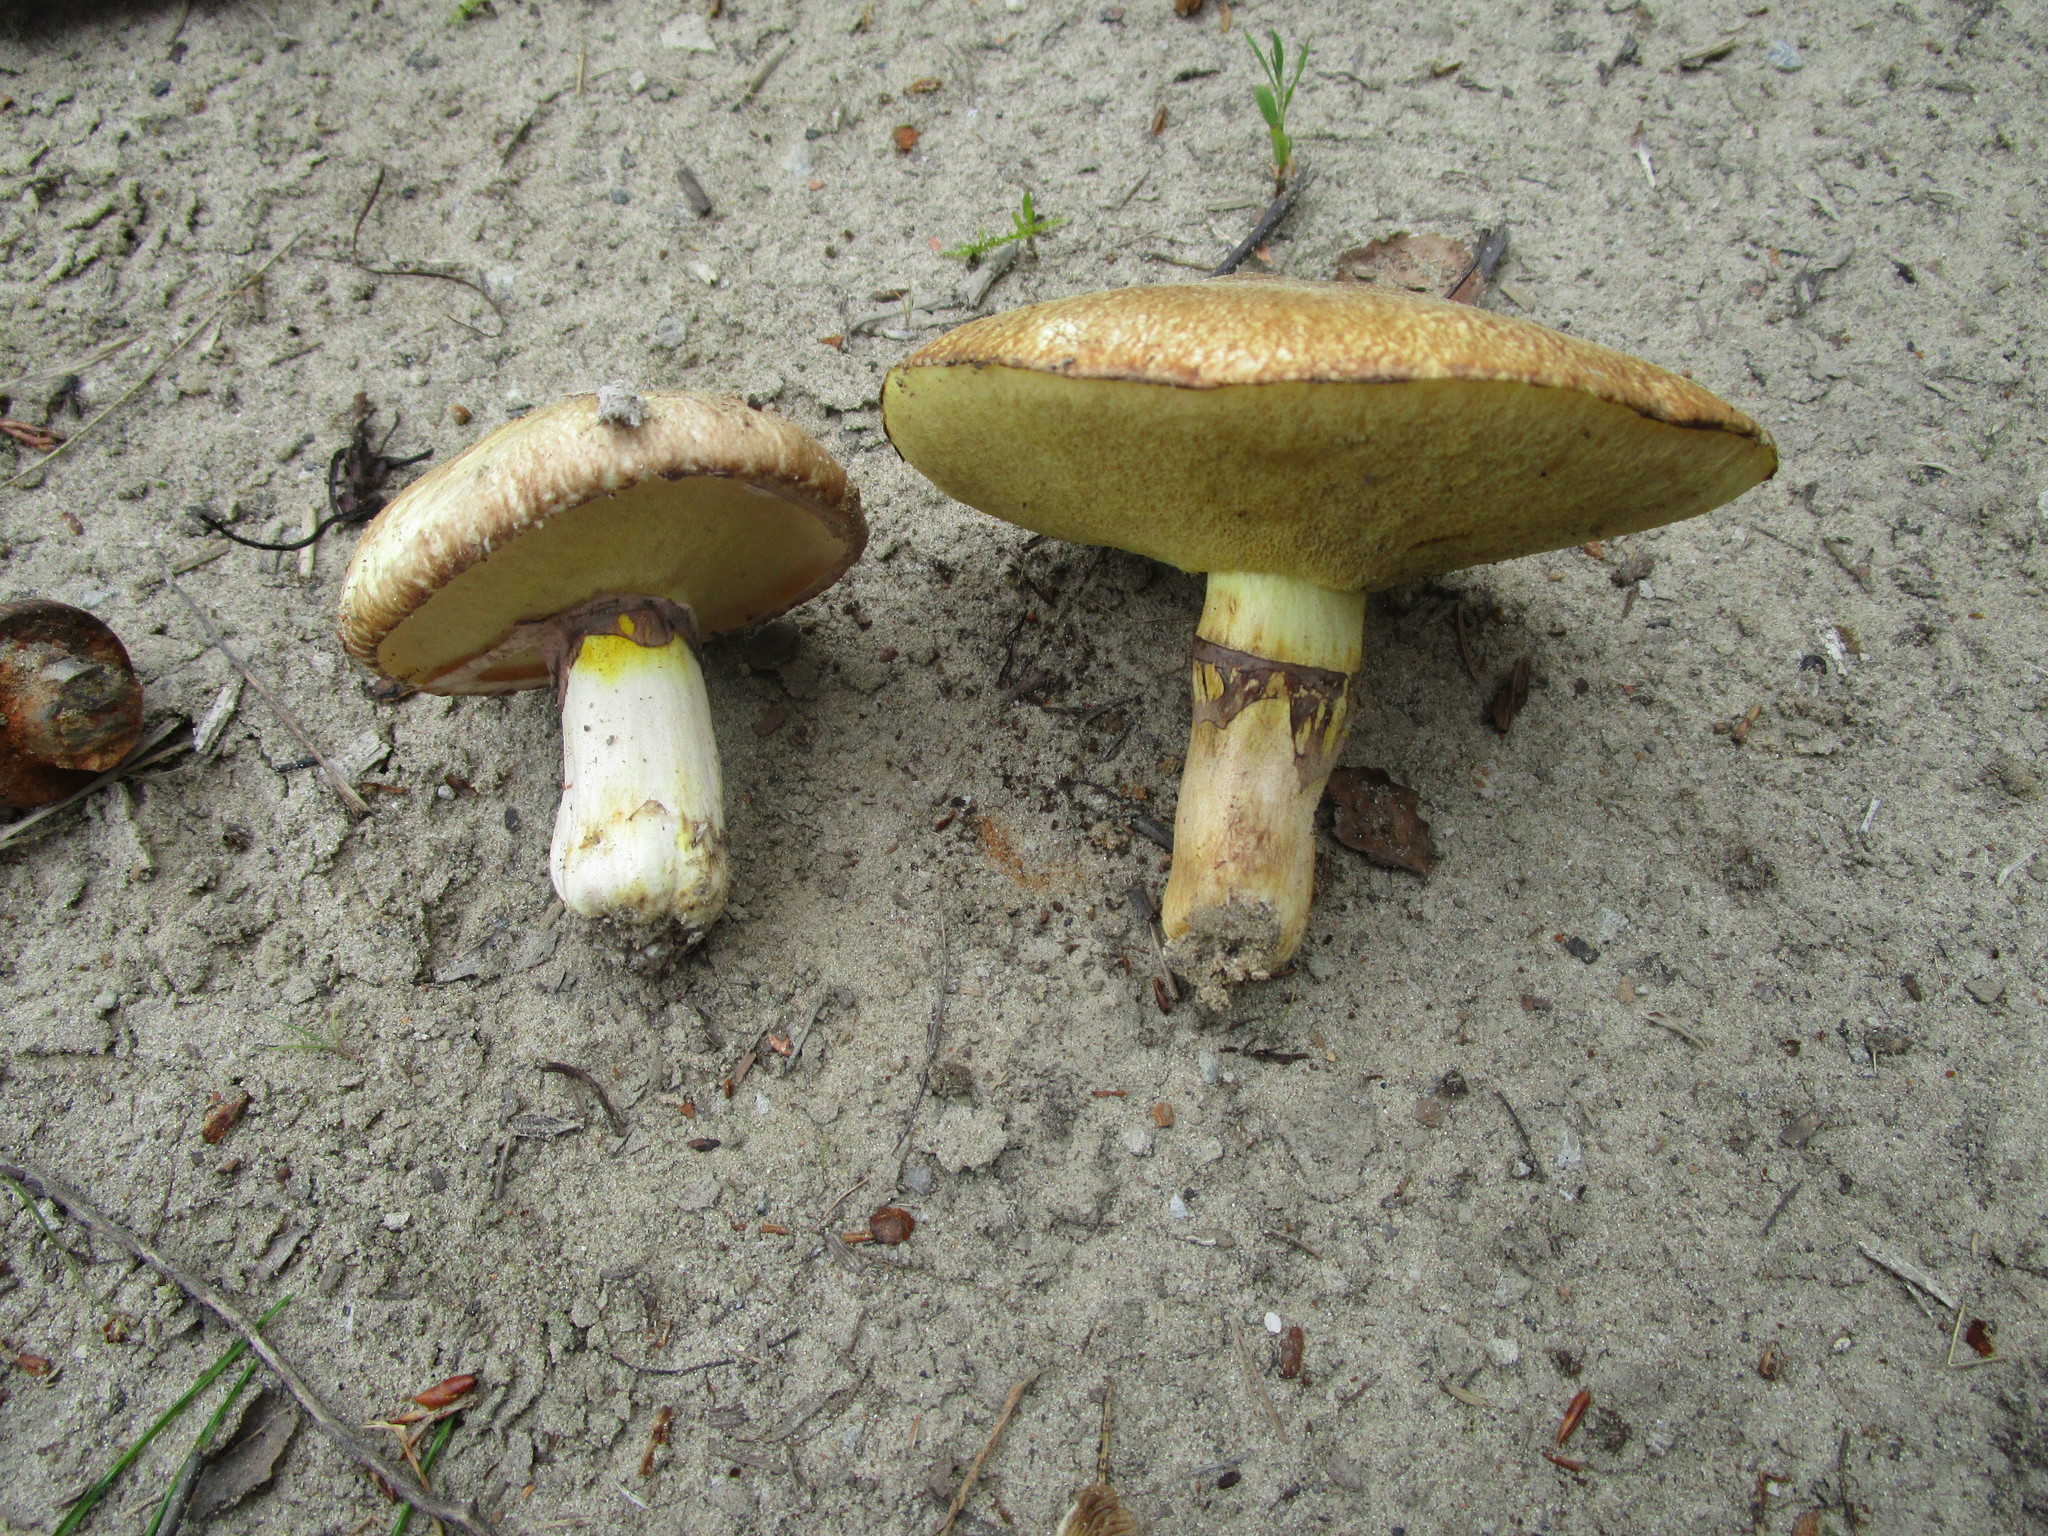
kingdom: Fungi
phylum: Basidiomycota
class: Agaricomycetes
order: Boletales
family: Suillaceae
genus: Suillus
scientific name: Suillus luteus
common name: Slippery jack
